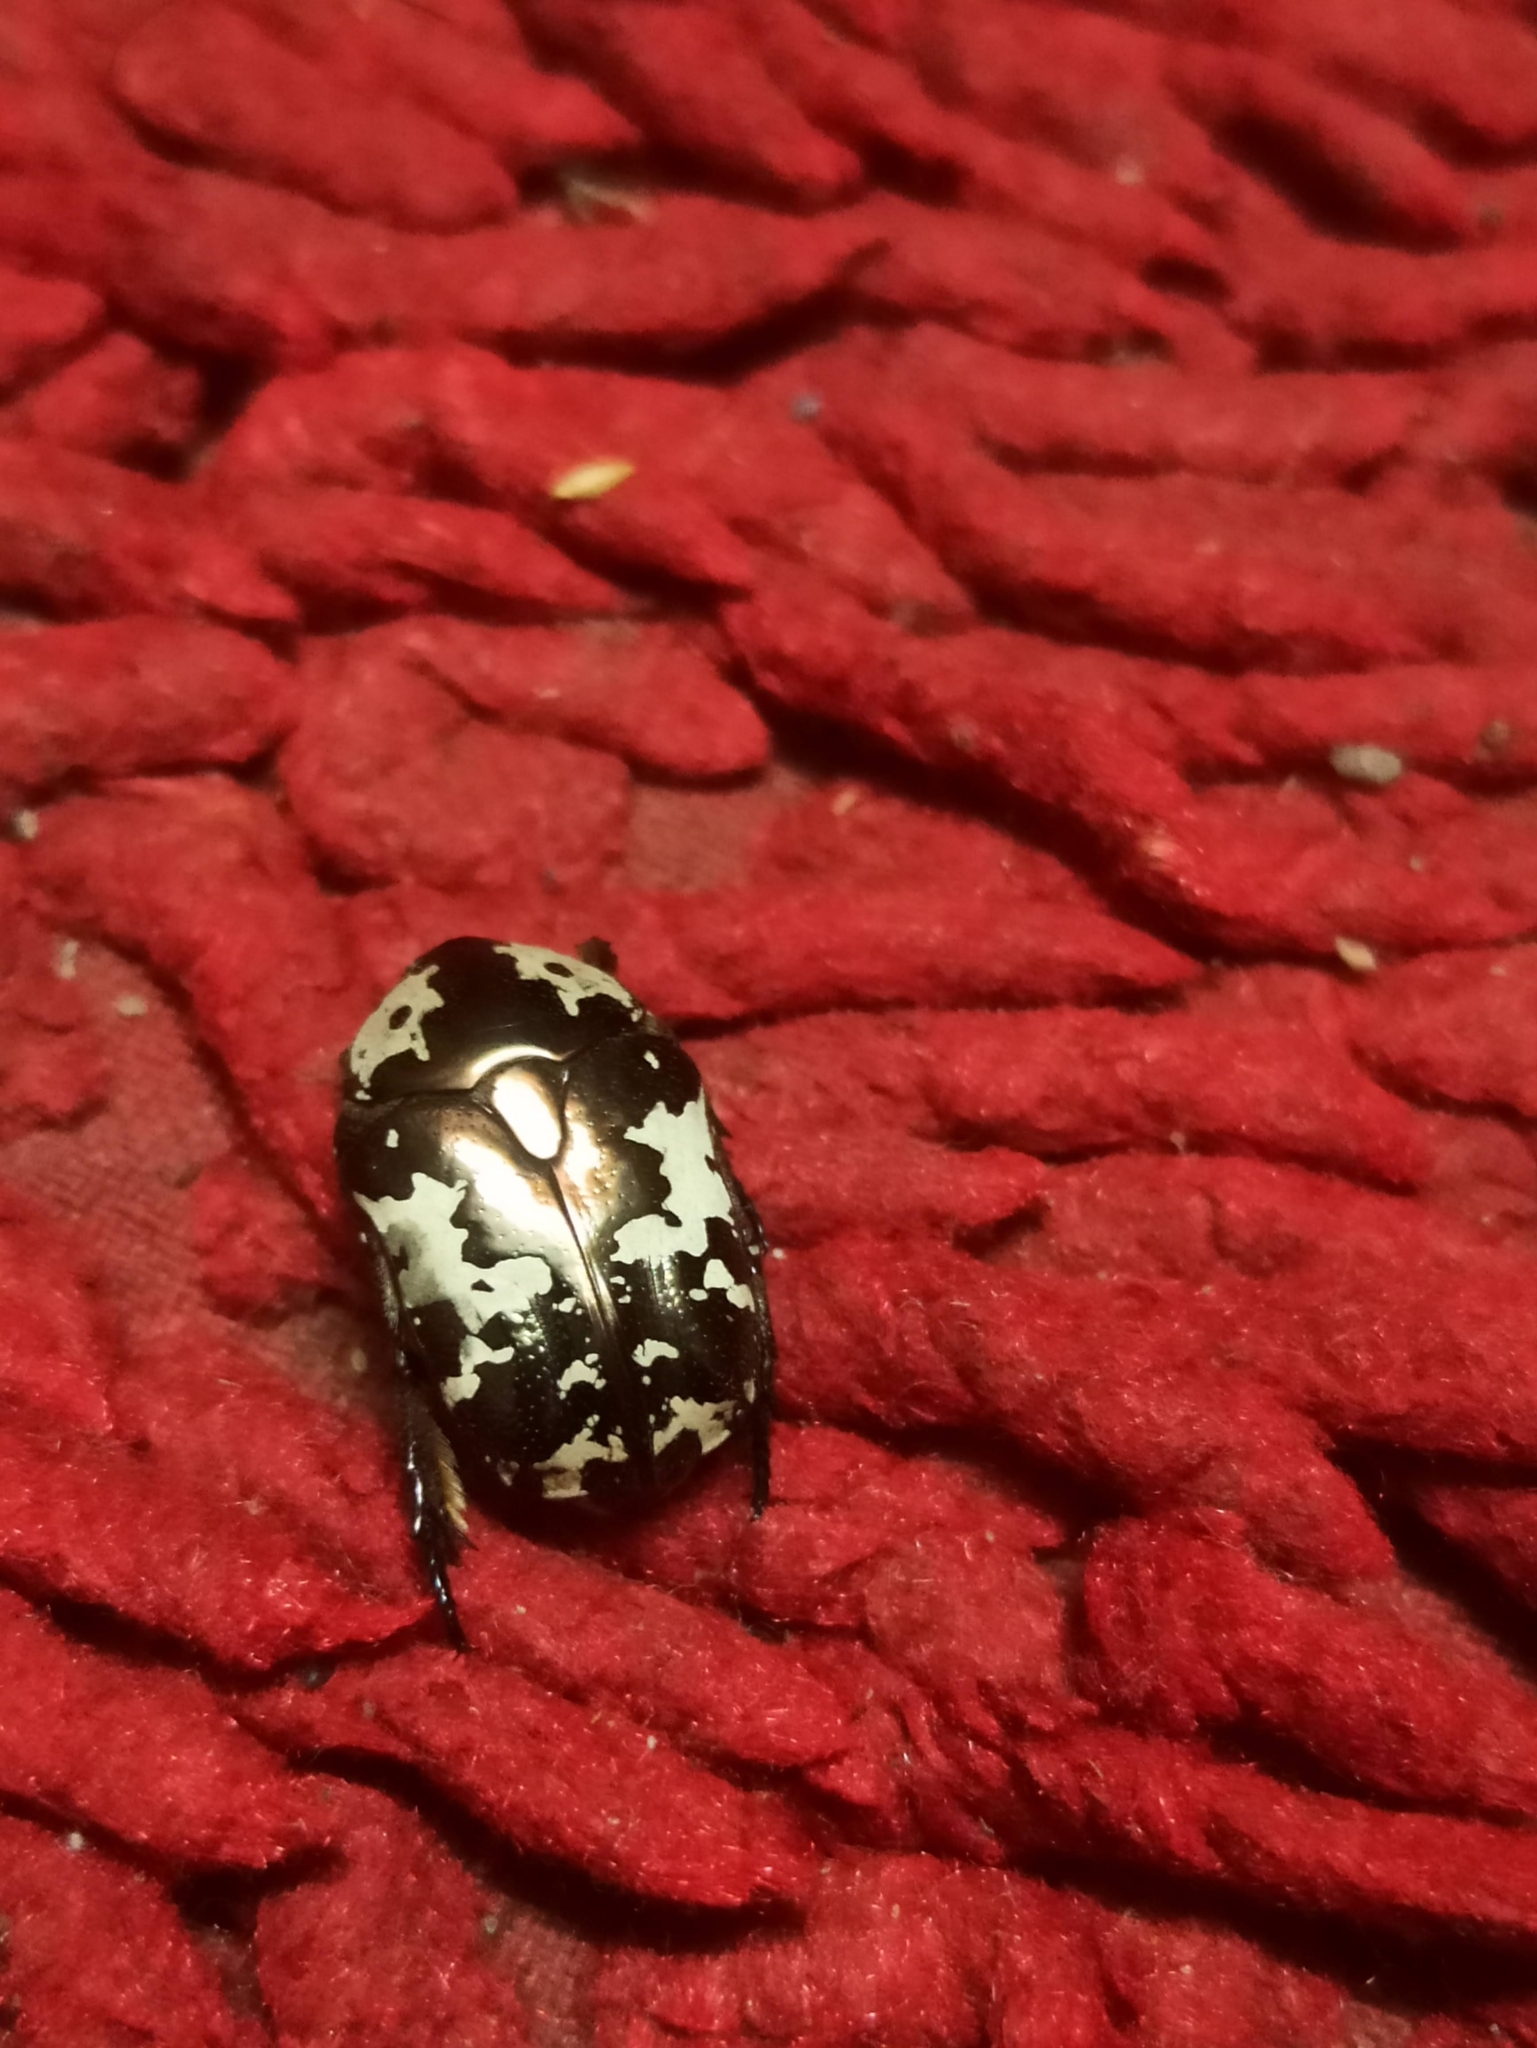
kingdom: Animalia
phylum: Arthropoda
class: Insecta
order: Coleoptera
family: Scarabaeidae
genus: Protaetia
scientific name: Protaetia aurichalcea
